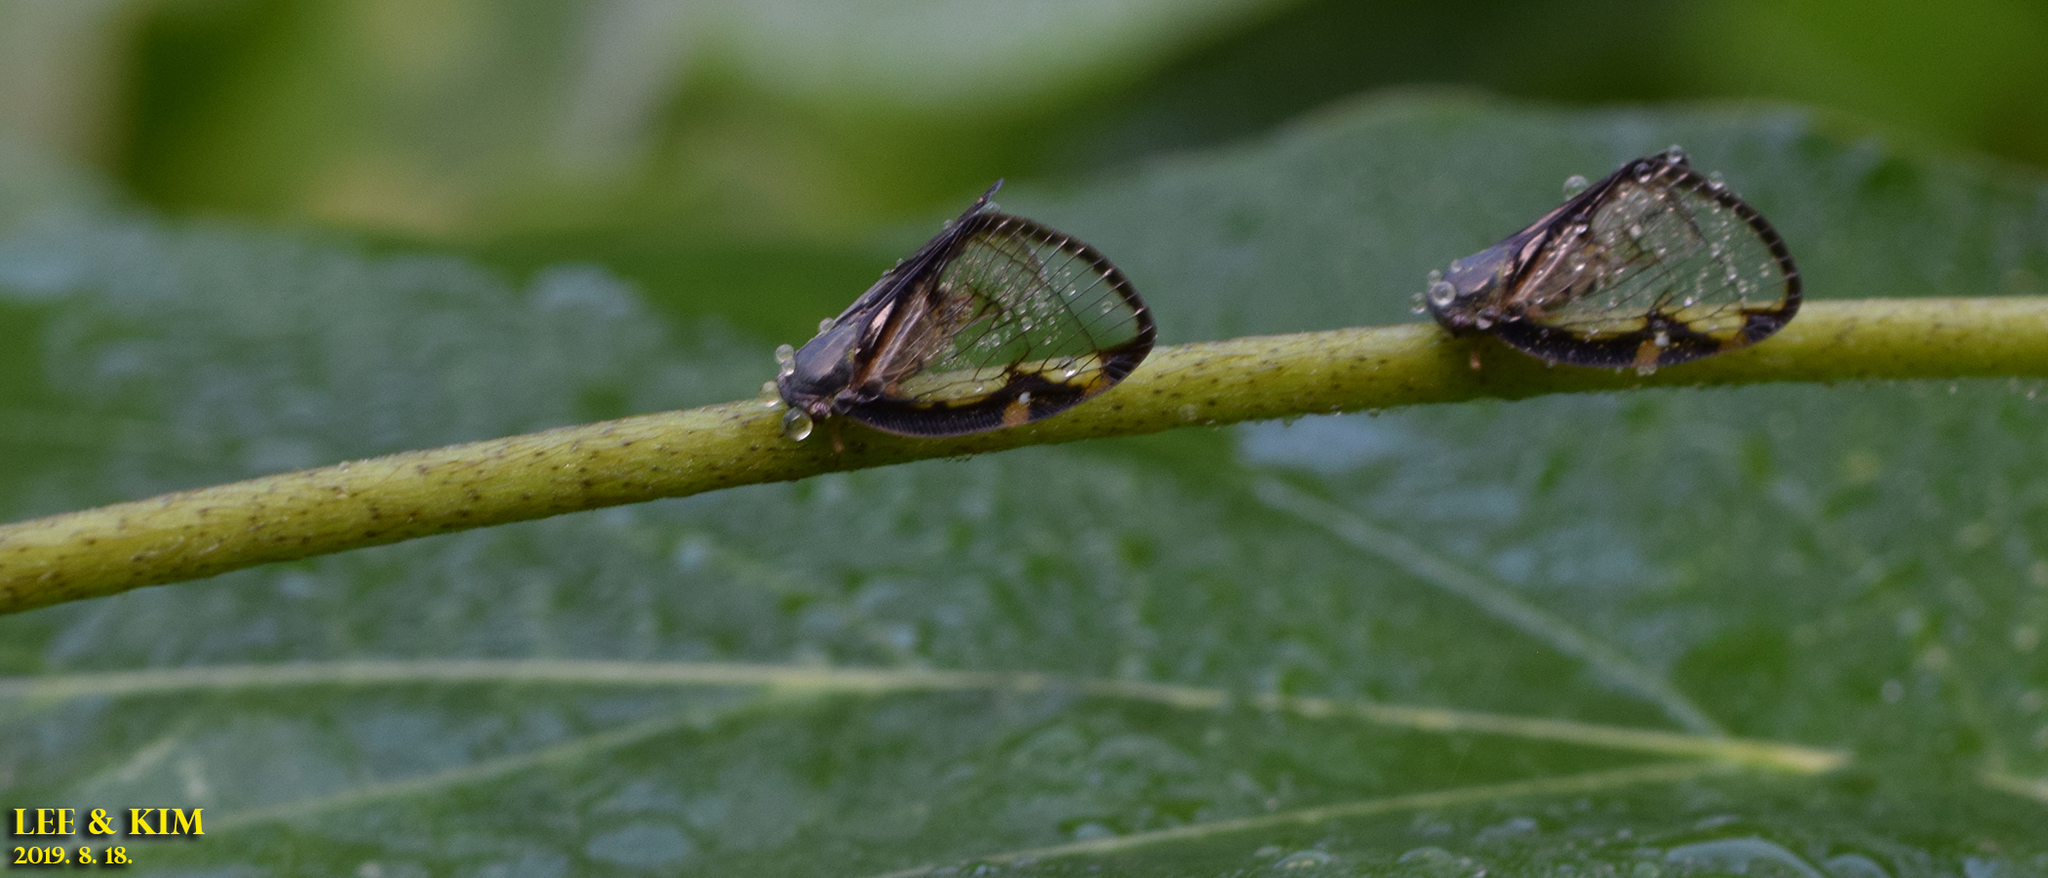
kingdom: Animalia
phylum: Arthropoda
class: Insecta
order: Hemiptera
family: Ricaniidae
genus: Euricania
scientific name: Euricania facialis
